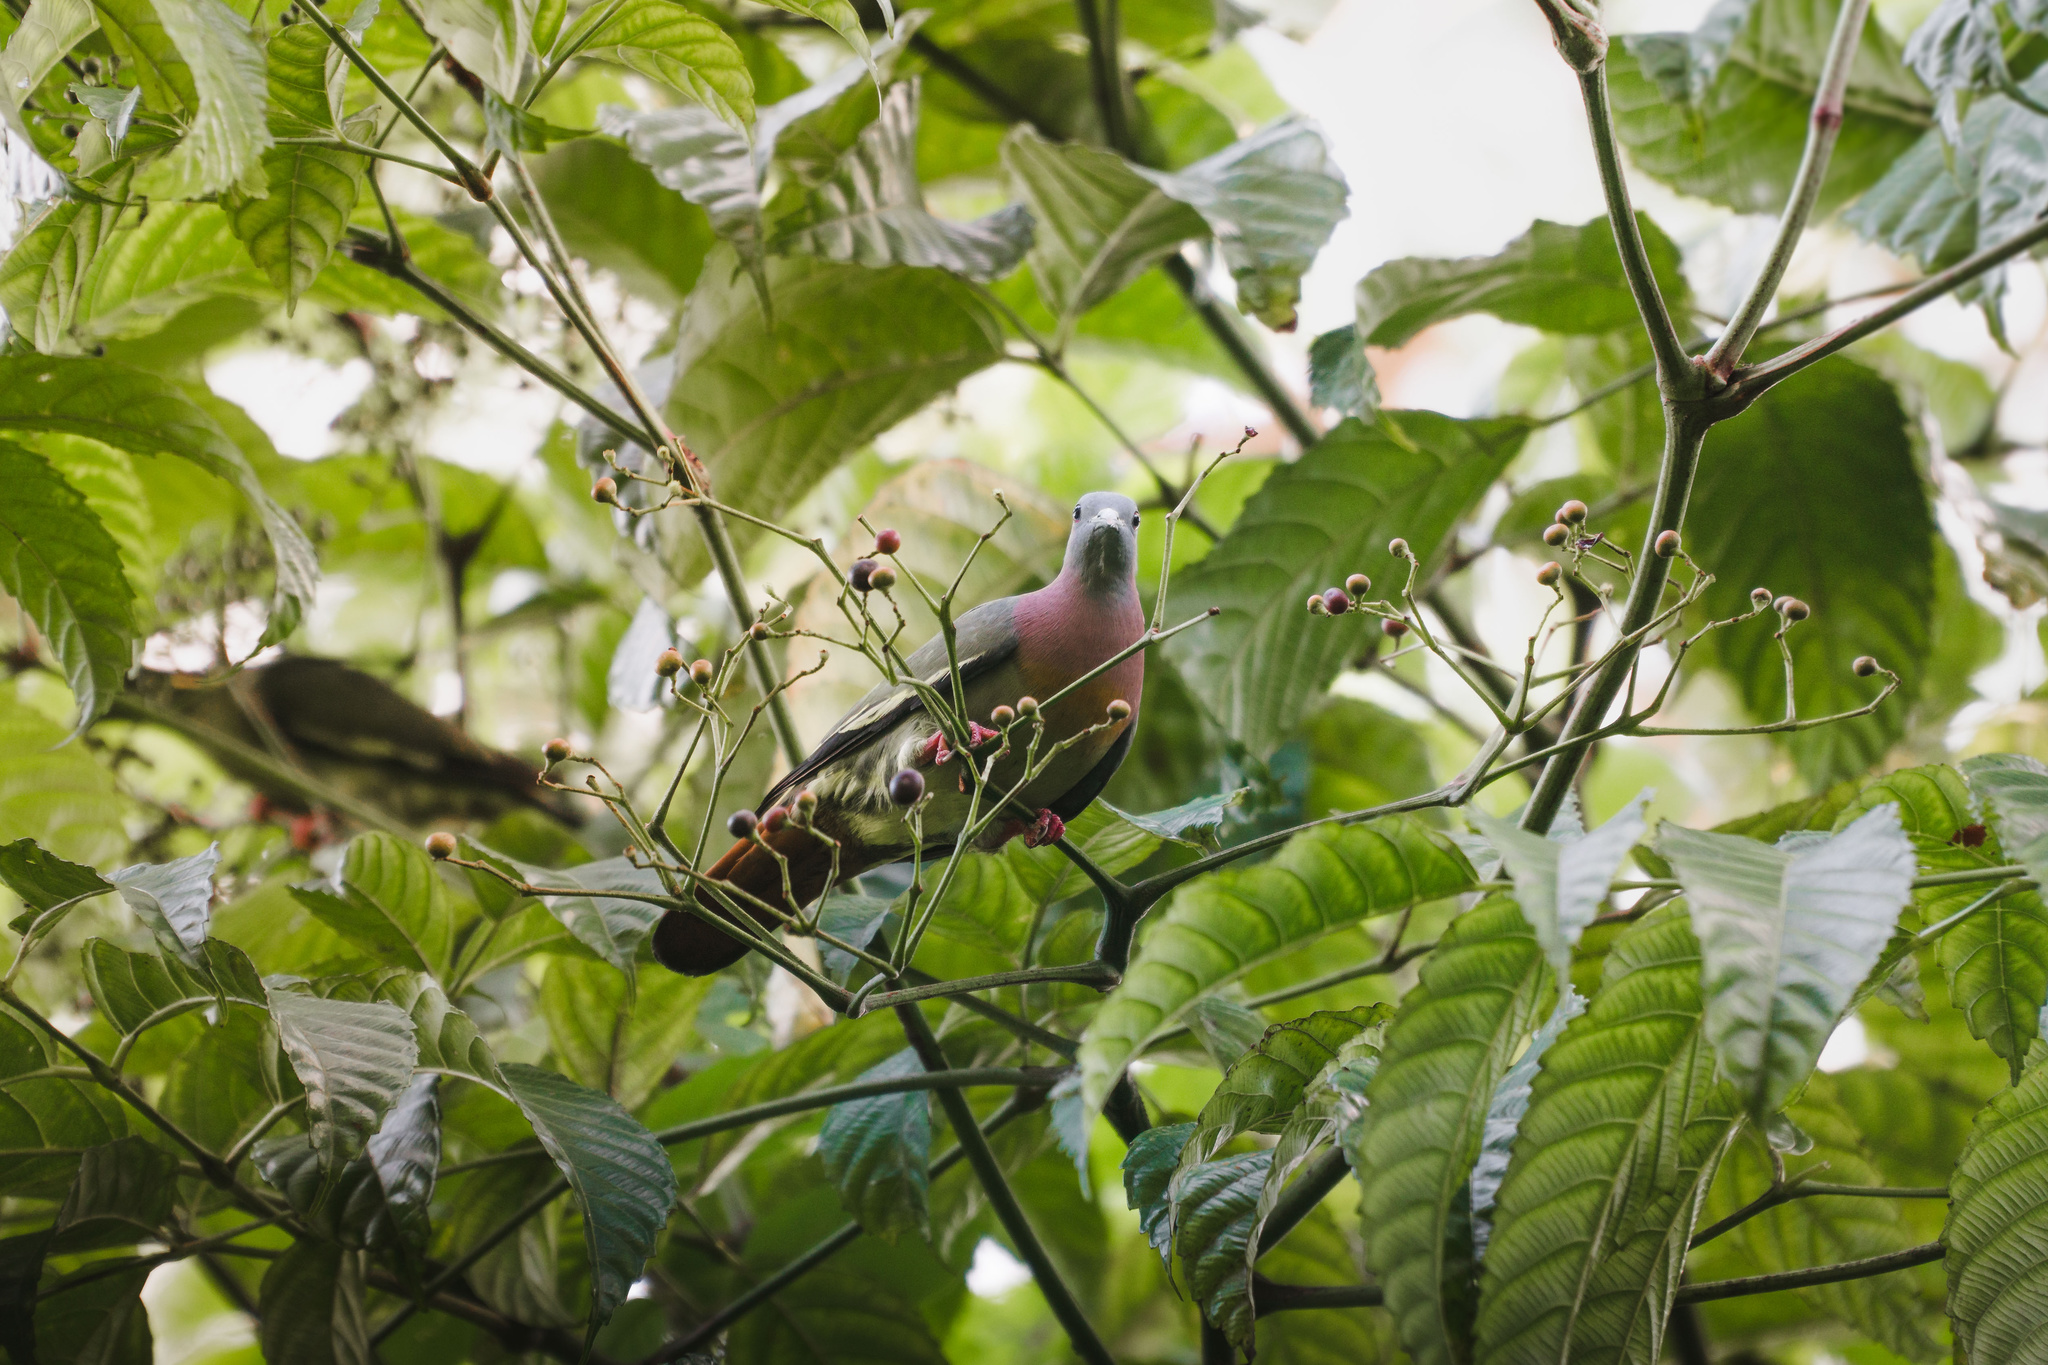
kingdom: Animalia
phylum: Chordata
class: Aves
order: Columbiformes
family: Columbidae
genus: Treron
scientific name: Treron vernans
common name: Pink-necked green pigeon
